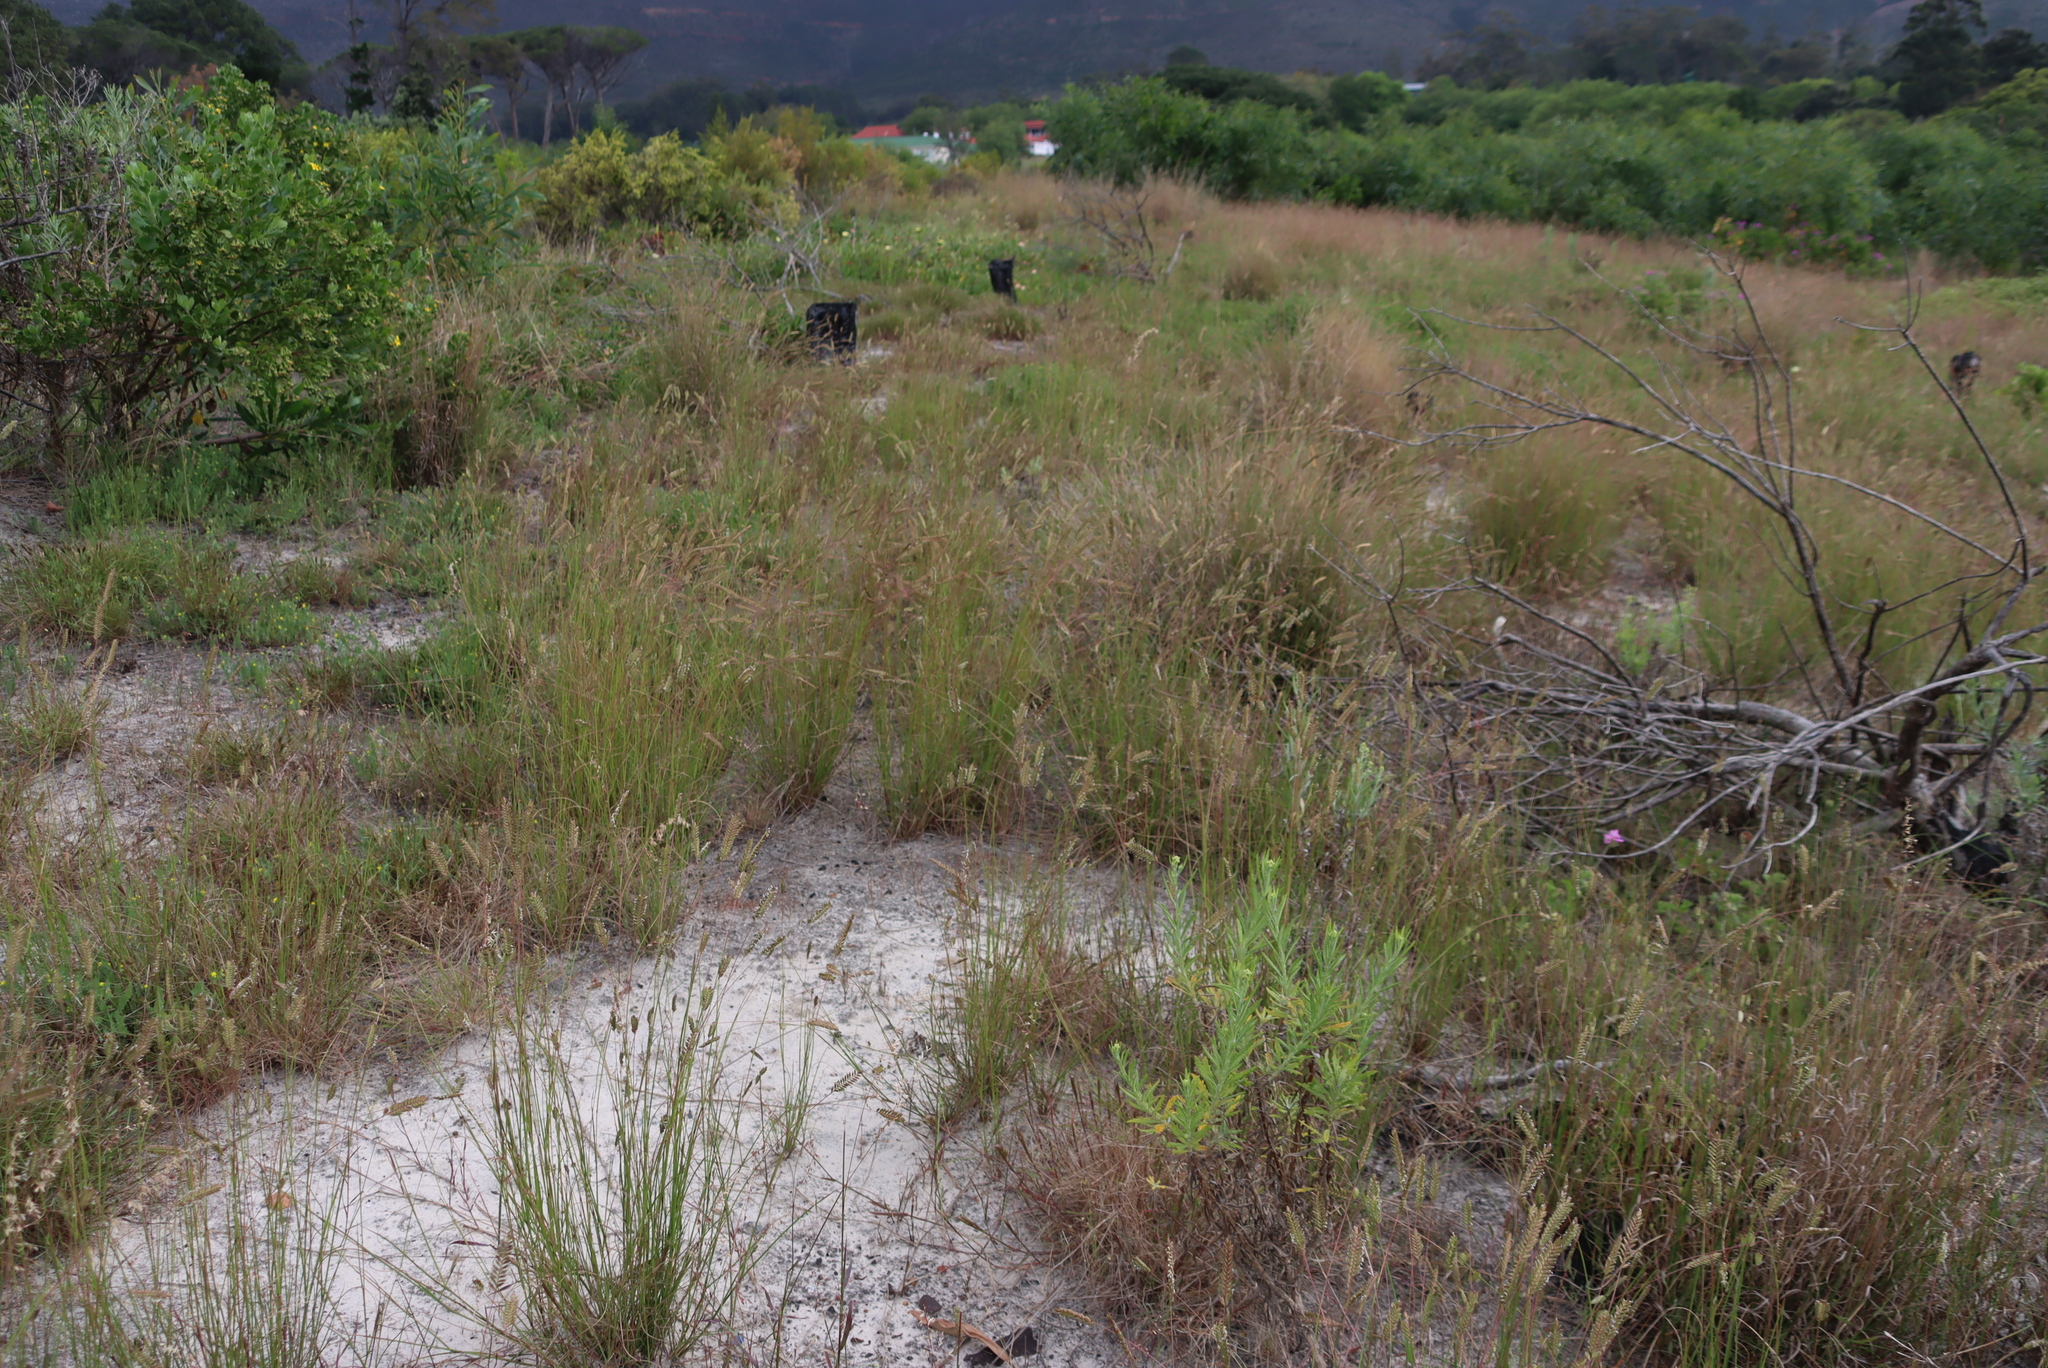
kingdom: Plantae
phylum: Tracheophyta
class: Liliopsida
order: Poales
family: Poaceae
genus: Tribolium
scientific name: Tribolium uniolae
